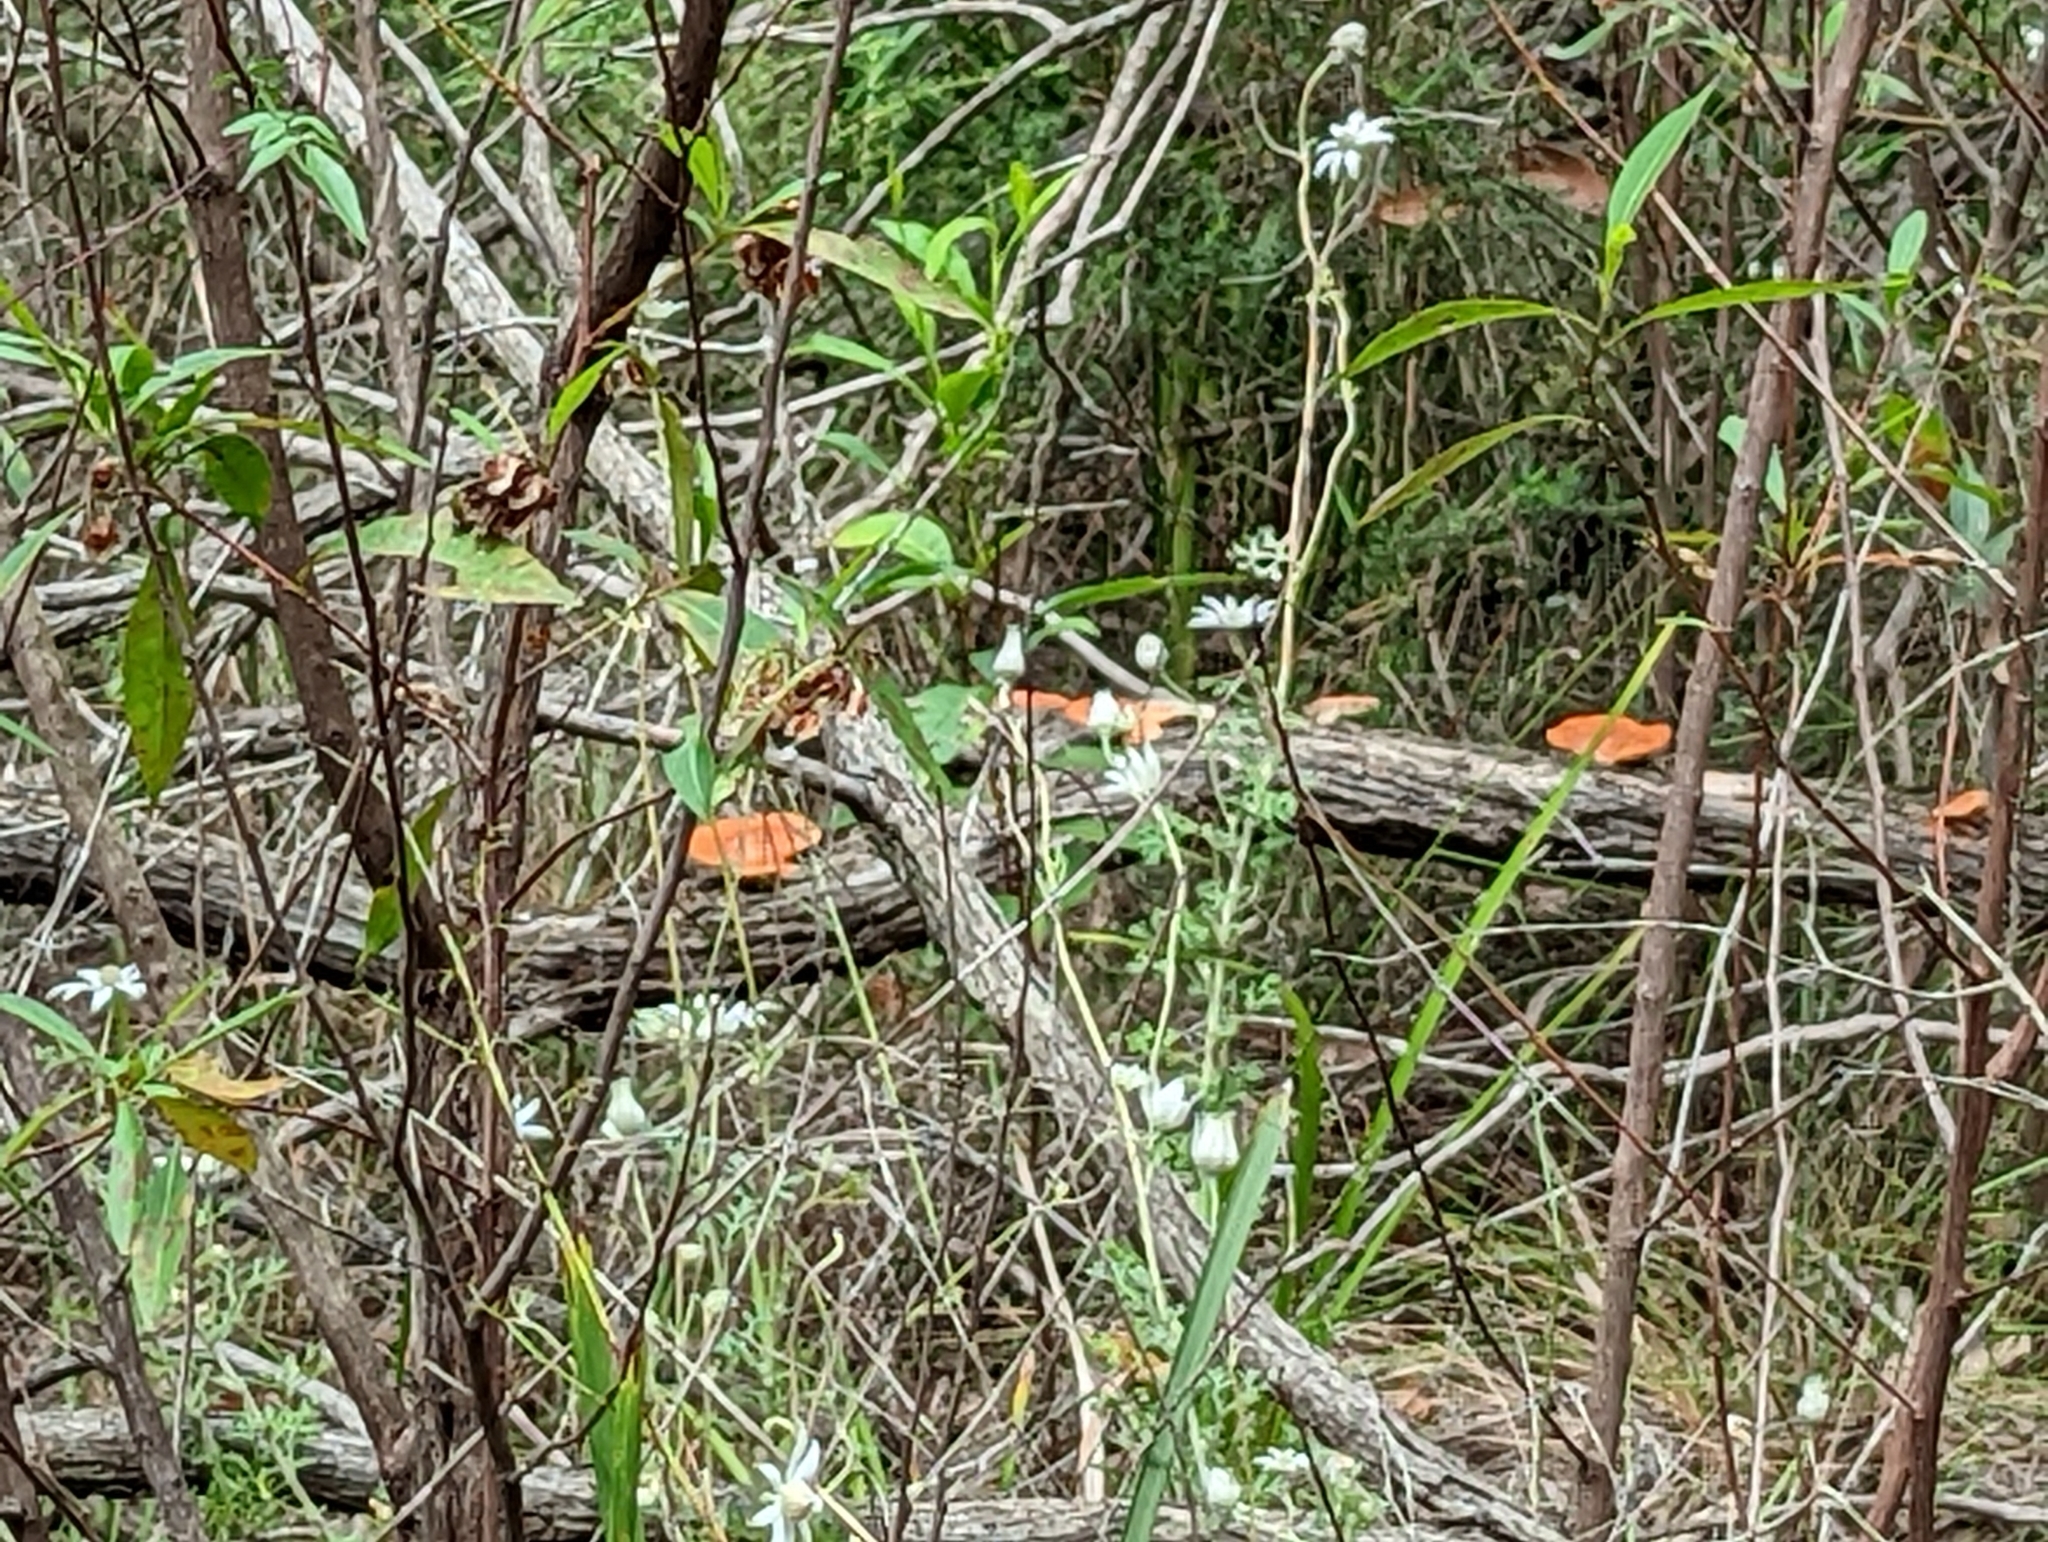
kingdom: Fungi
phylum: Basidiomycota
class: Agaricomycetes
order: Polyporales
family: Polyporaceae
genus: Trametes
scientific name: Trametes coccinea
